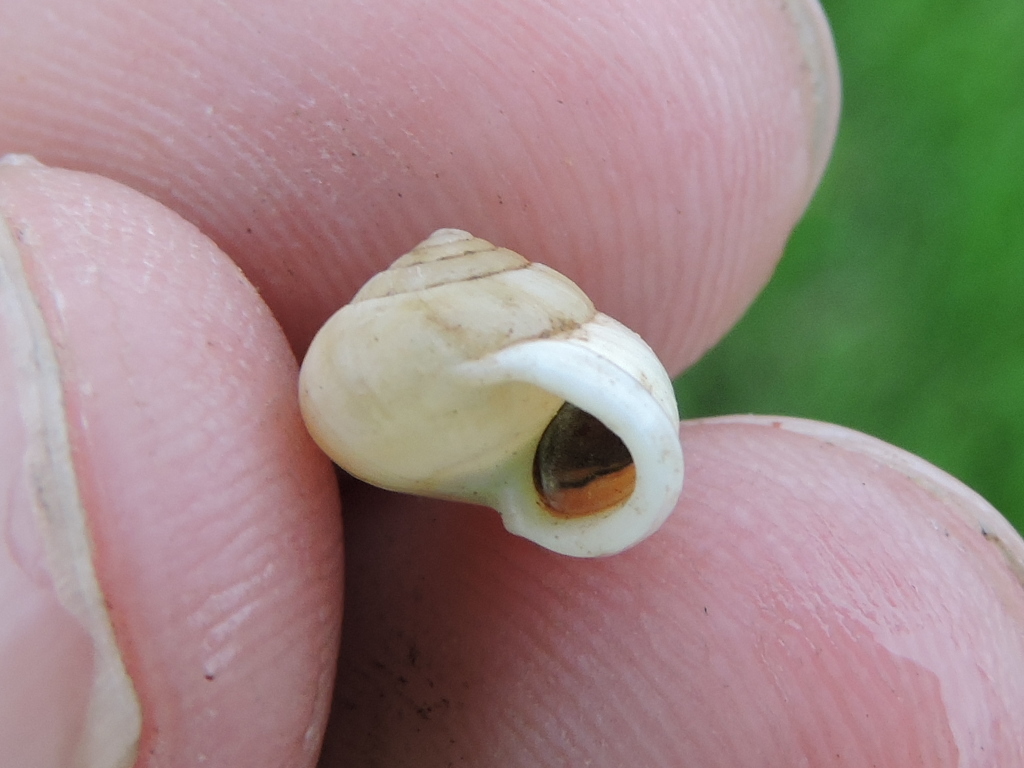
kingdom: Animalia
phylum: Mollusca
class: Gastropoda
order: Cycloneritida
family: Helicinidae
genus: Helicina
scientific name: Helicina orbiculata
